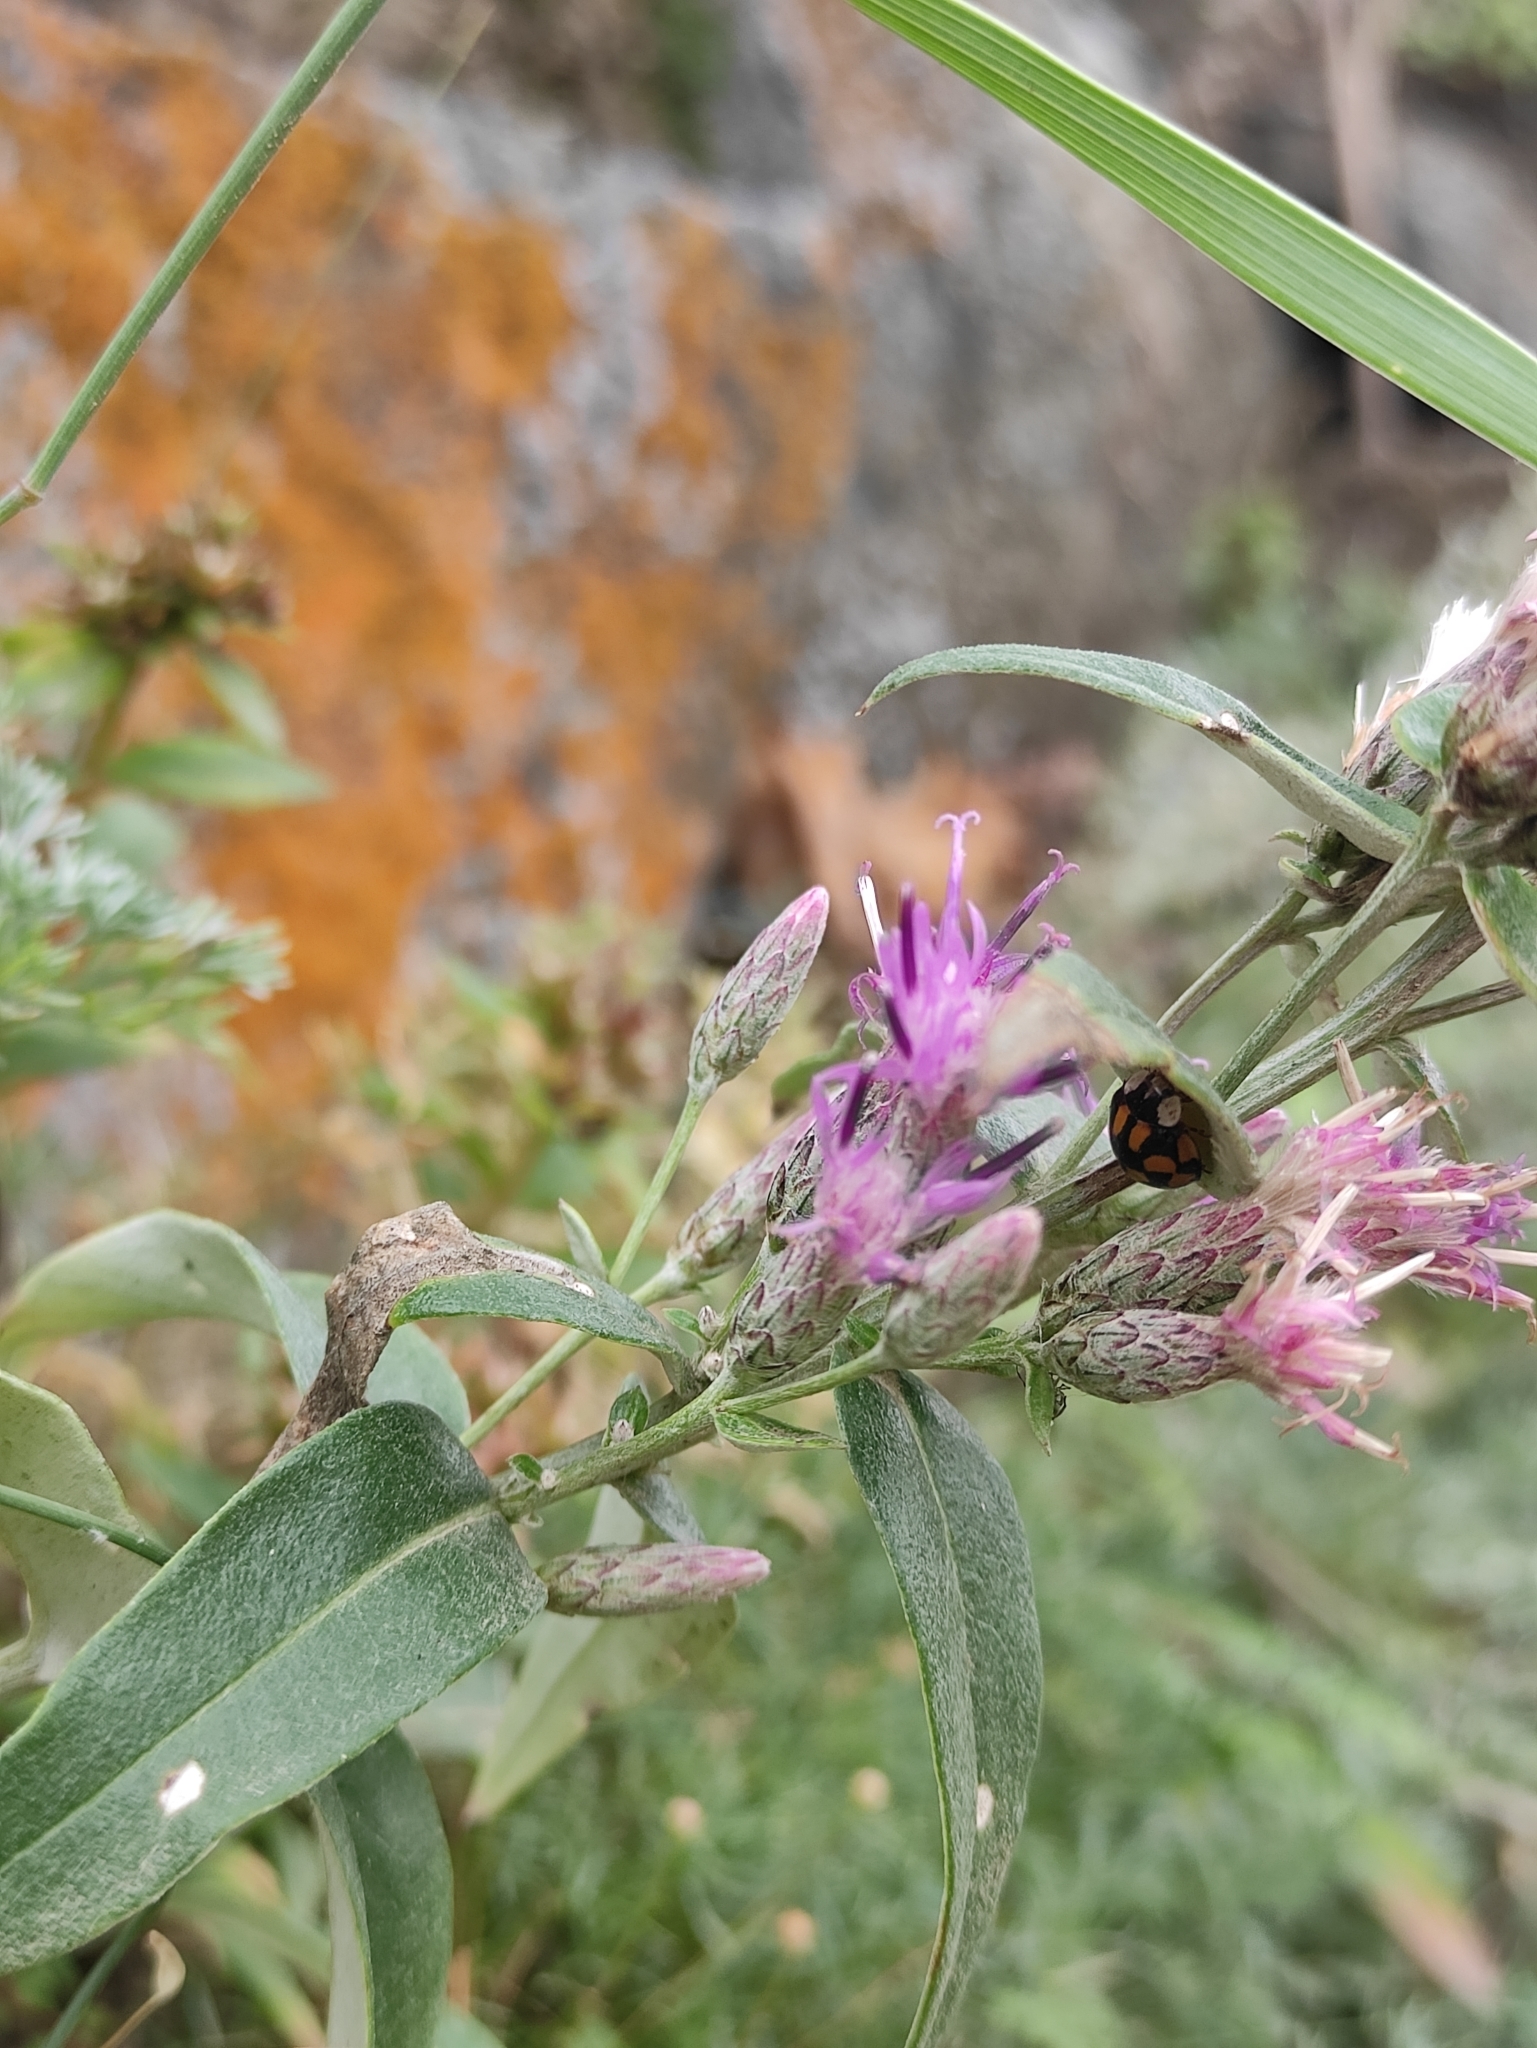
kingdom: Plantae
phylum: Tracheophyta
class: Magnoliopsida
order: Asterales
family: Asteraceae
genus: Saussurea
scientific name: Saussurea amara
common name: Alberta sawwort
